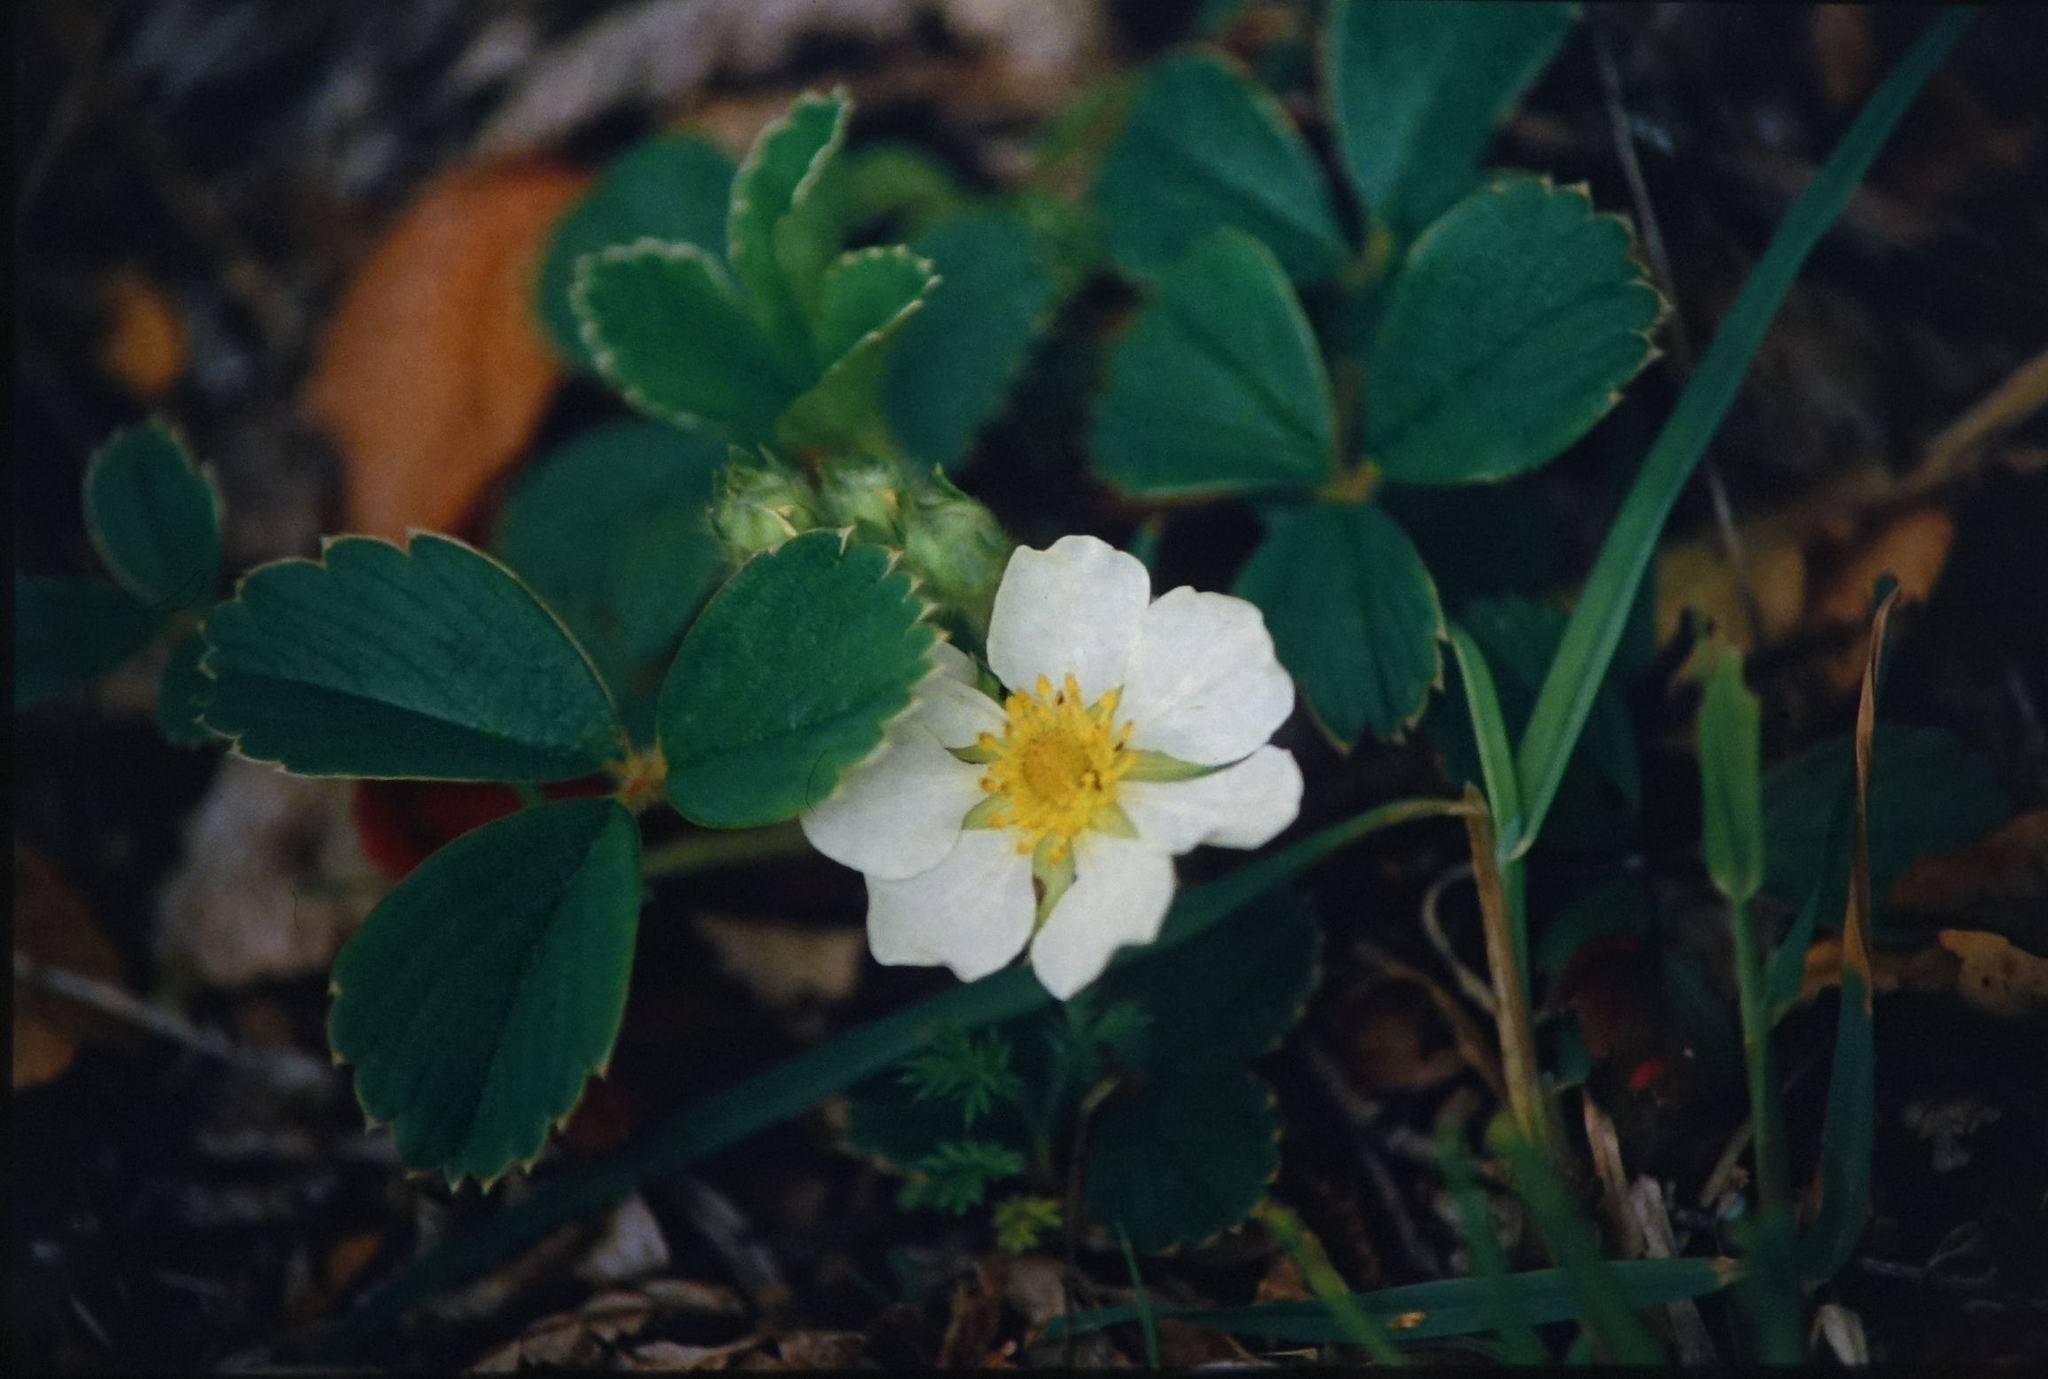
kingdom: Plantae
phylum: Tracheophyta
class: Magnoliopsida
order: Rosales
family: Rosaceae
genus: Fragaria
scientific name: Fragaria chiloensis
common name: Beach strawberry
